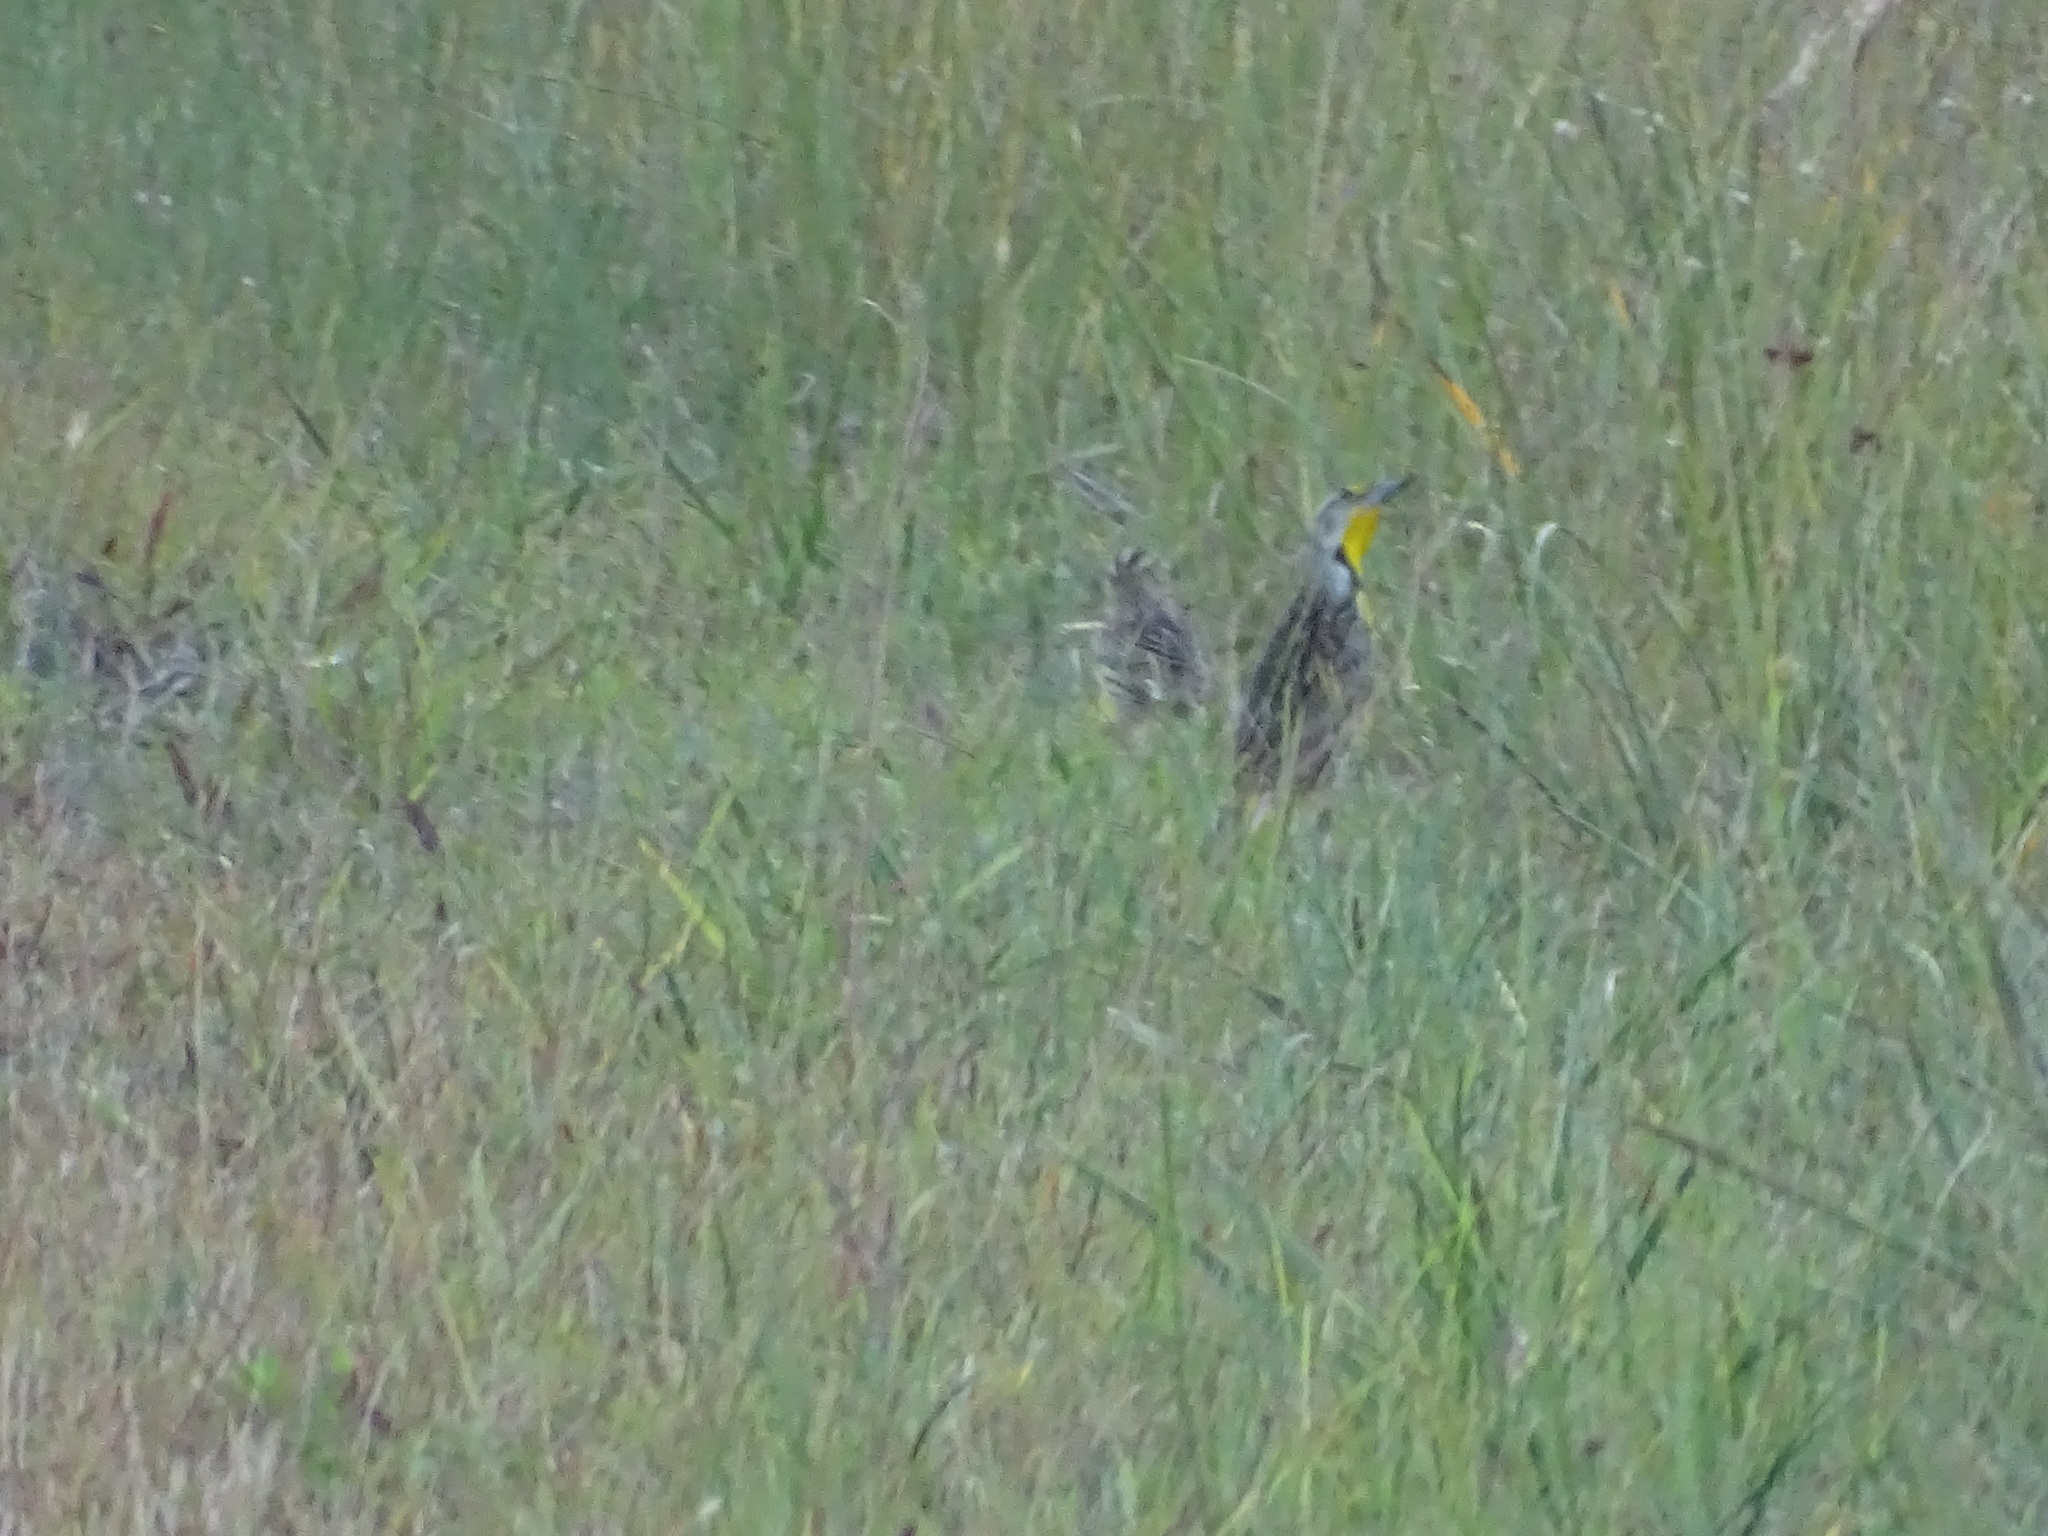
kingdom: Animalia
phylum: Chordata
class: Aves
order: Passeriformes
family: Icteridae
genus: Sturnella
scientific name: Sturnella magna
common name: Eastern meadowlark
